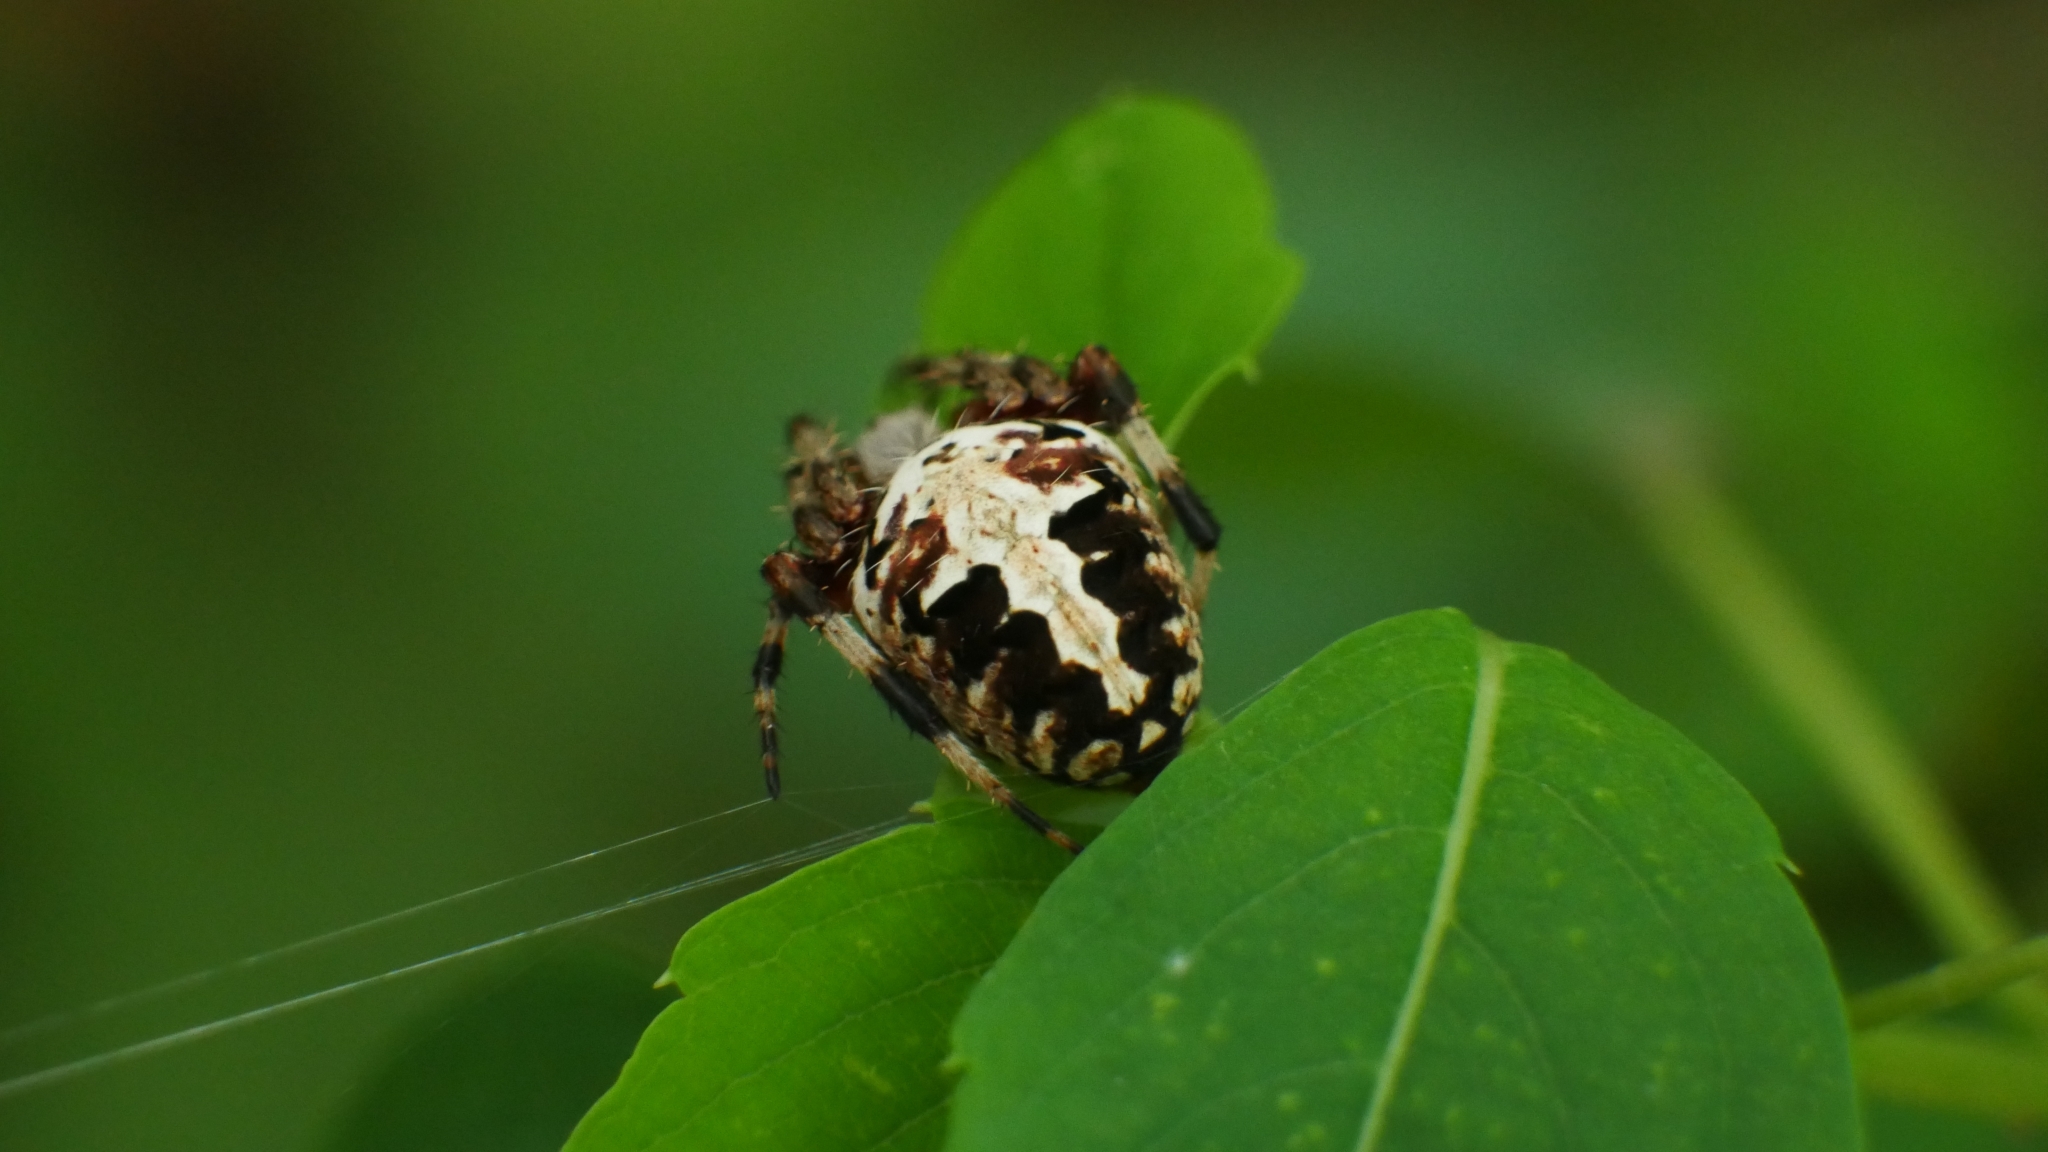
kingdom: Animalia
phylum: Arthropoda
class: Arachnida
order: Araneae
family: Araneidae
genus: Neoscona
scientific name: Neoscona domiciliorum
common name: Red-femured spotted orbweaver
